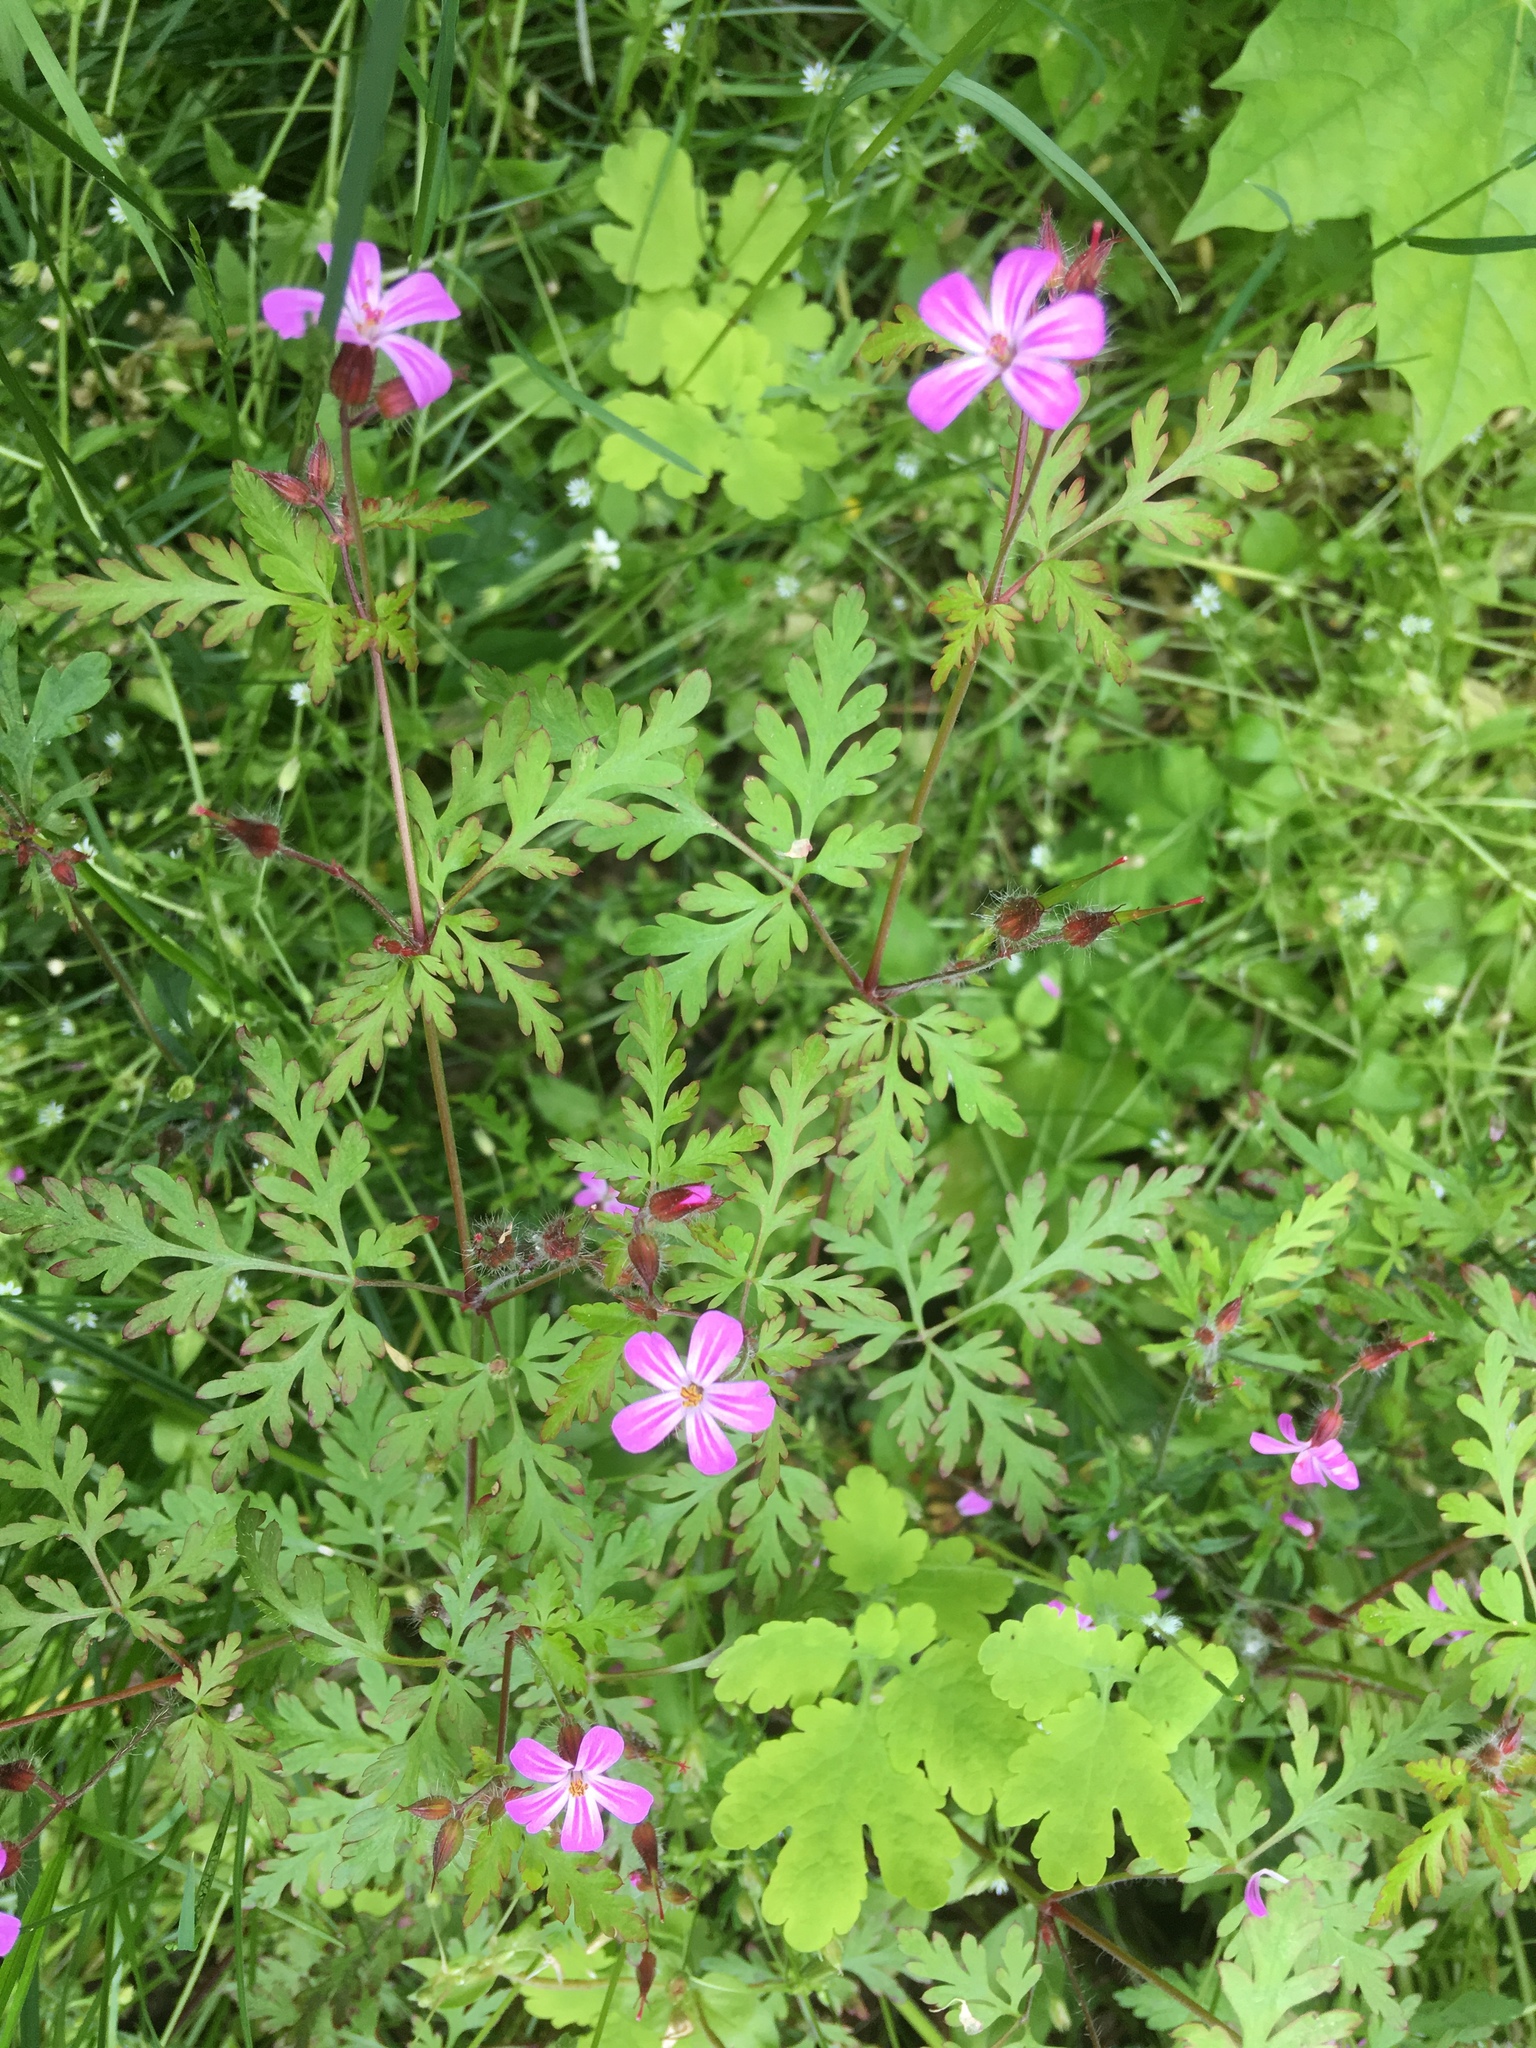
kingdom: Plantae
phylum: Tracheophyta
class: Magnoliopsida
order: Geraniales
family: Geraniaceae
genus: Geranium
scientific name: Geranium robertianum
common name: Herb-robert
